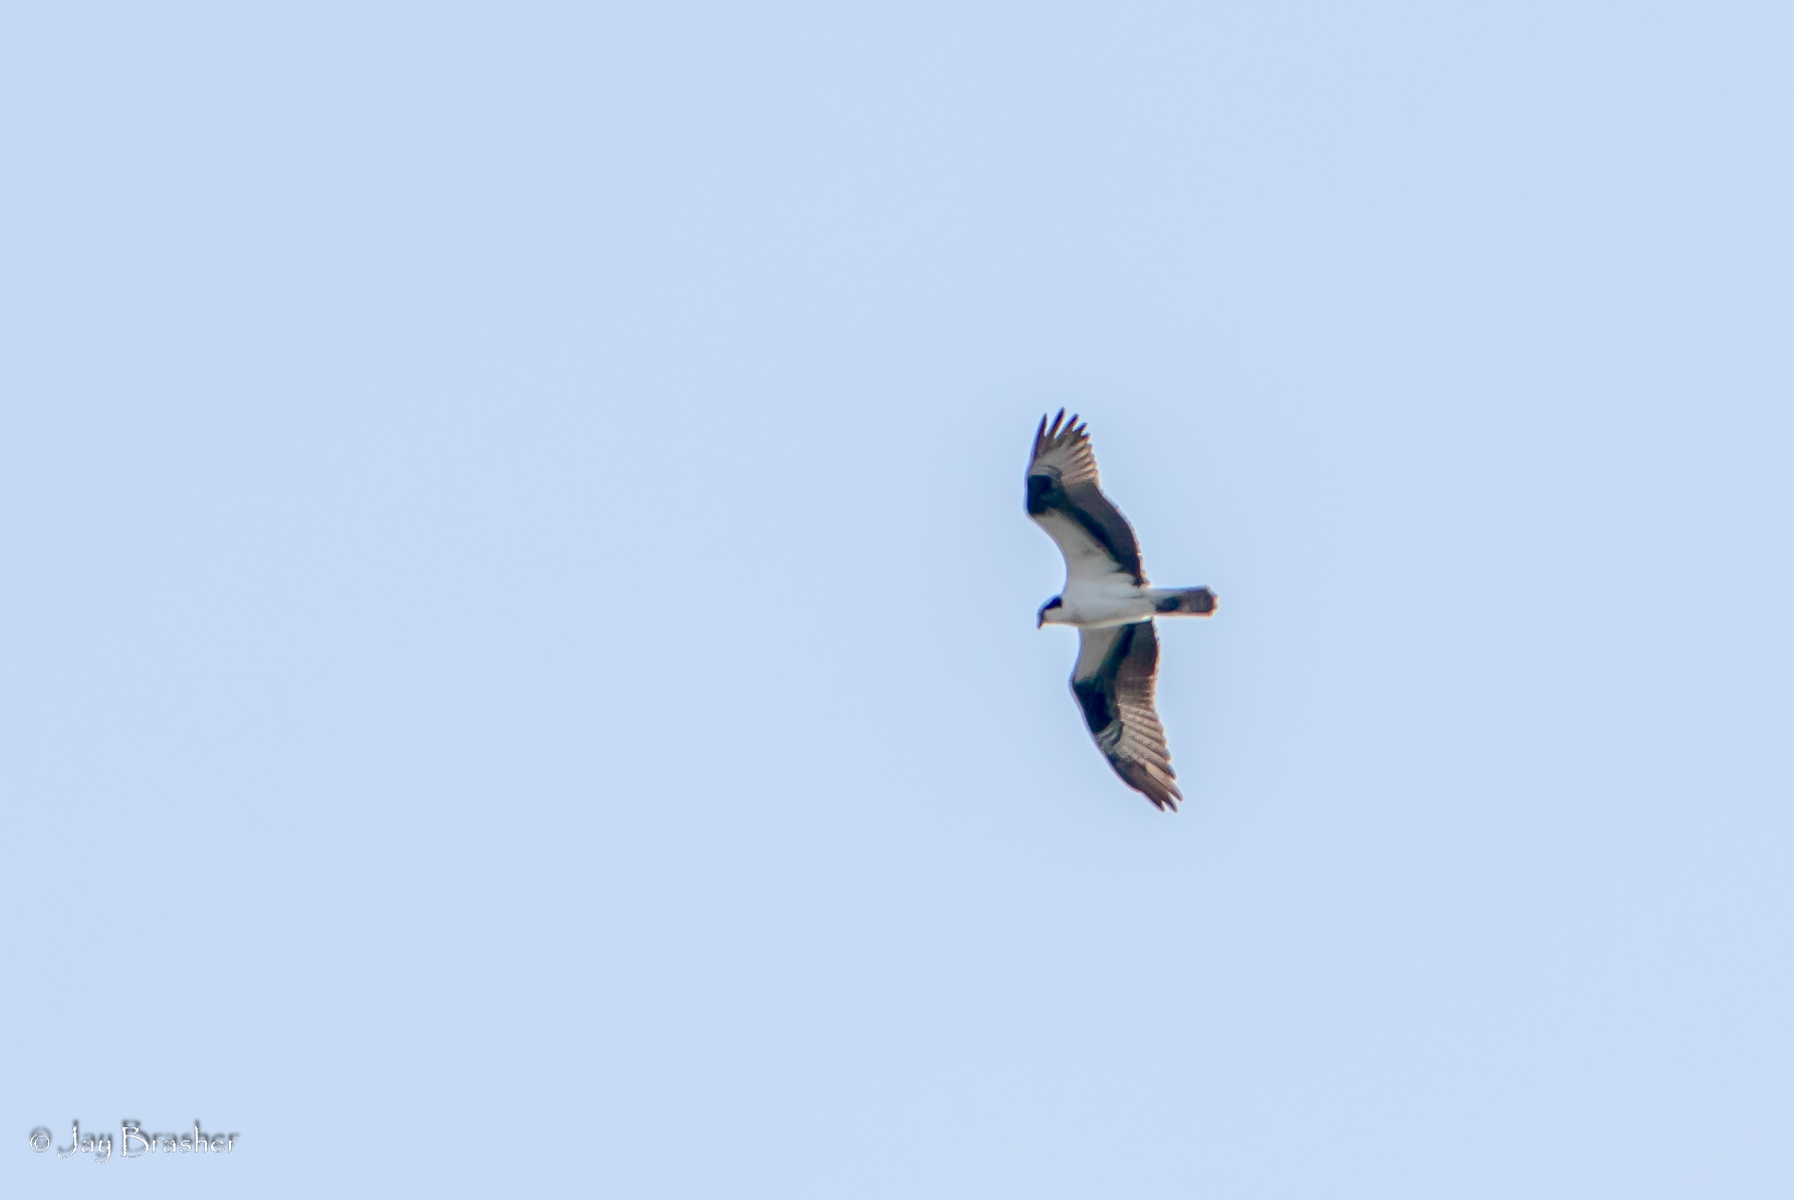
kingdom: Animalia
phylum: Chordata
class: Aves
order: Accipitriformes
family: Pandionidae
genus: Pandion
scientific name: Pandion haliaetus
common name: Osprey
